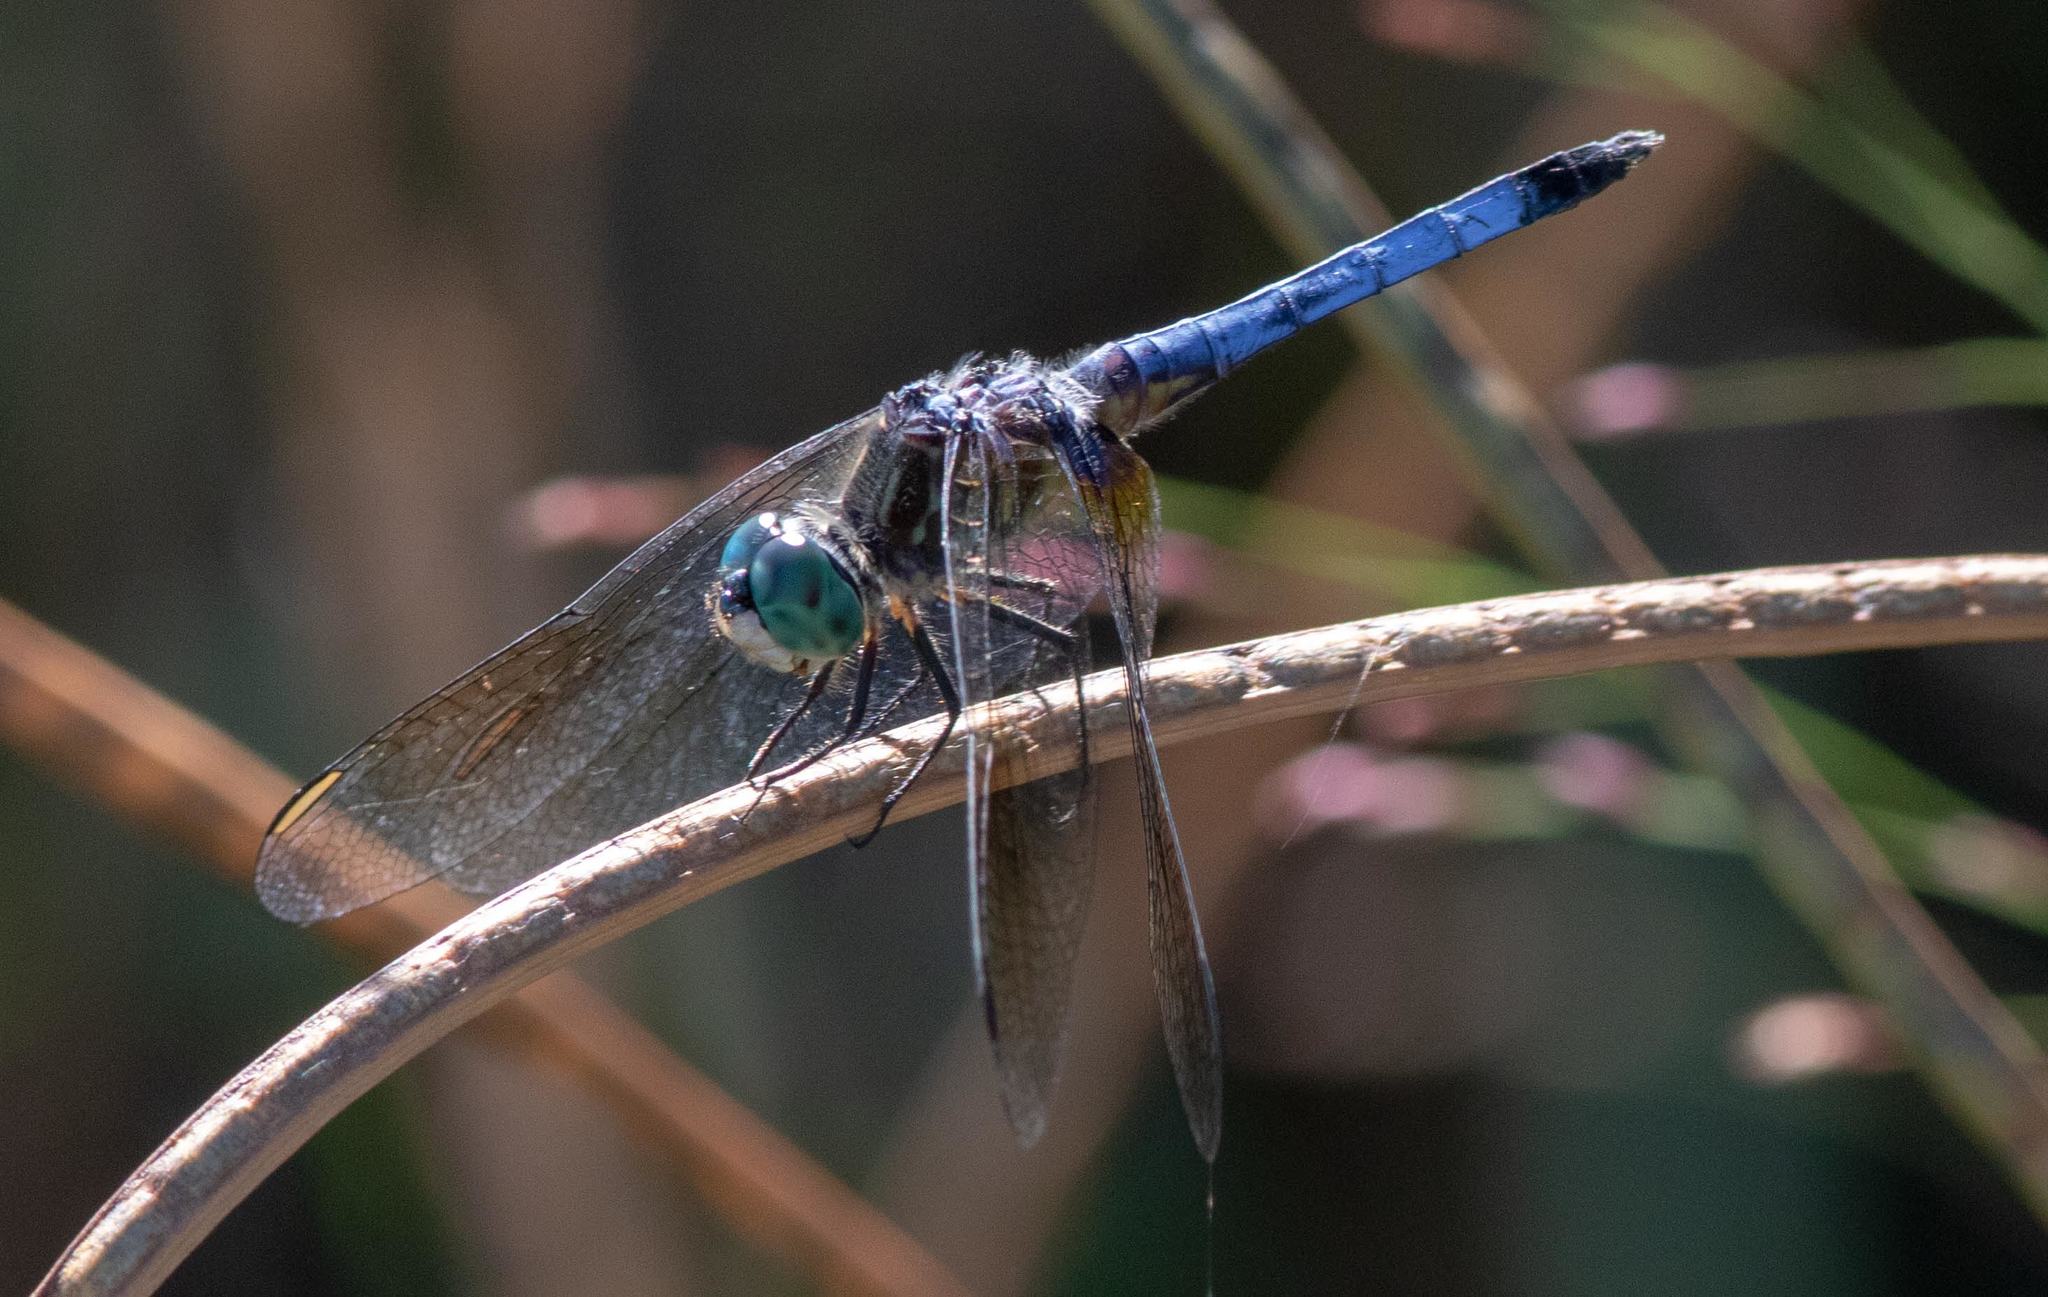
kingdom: Animalia
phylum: Arthropoda
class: Insecta
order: Odonata
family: Libellulidae
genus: Pachydiplax
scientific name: Pachydiplax longipennis
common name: Blue dasher
